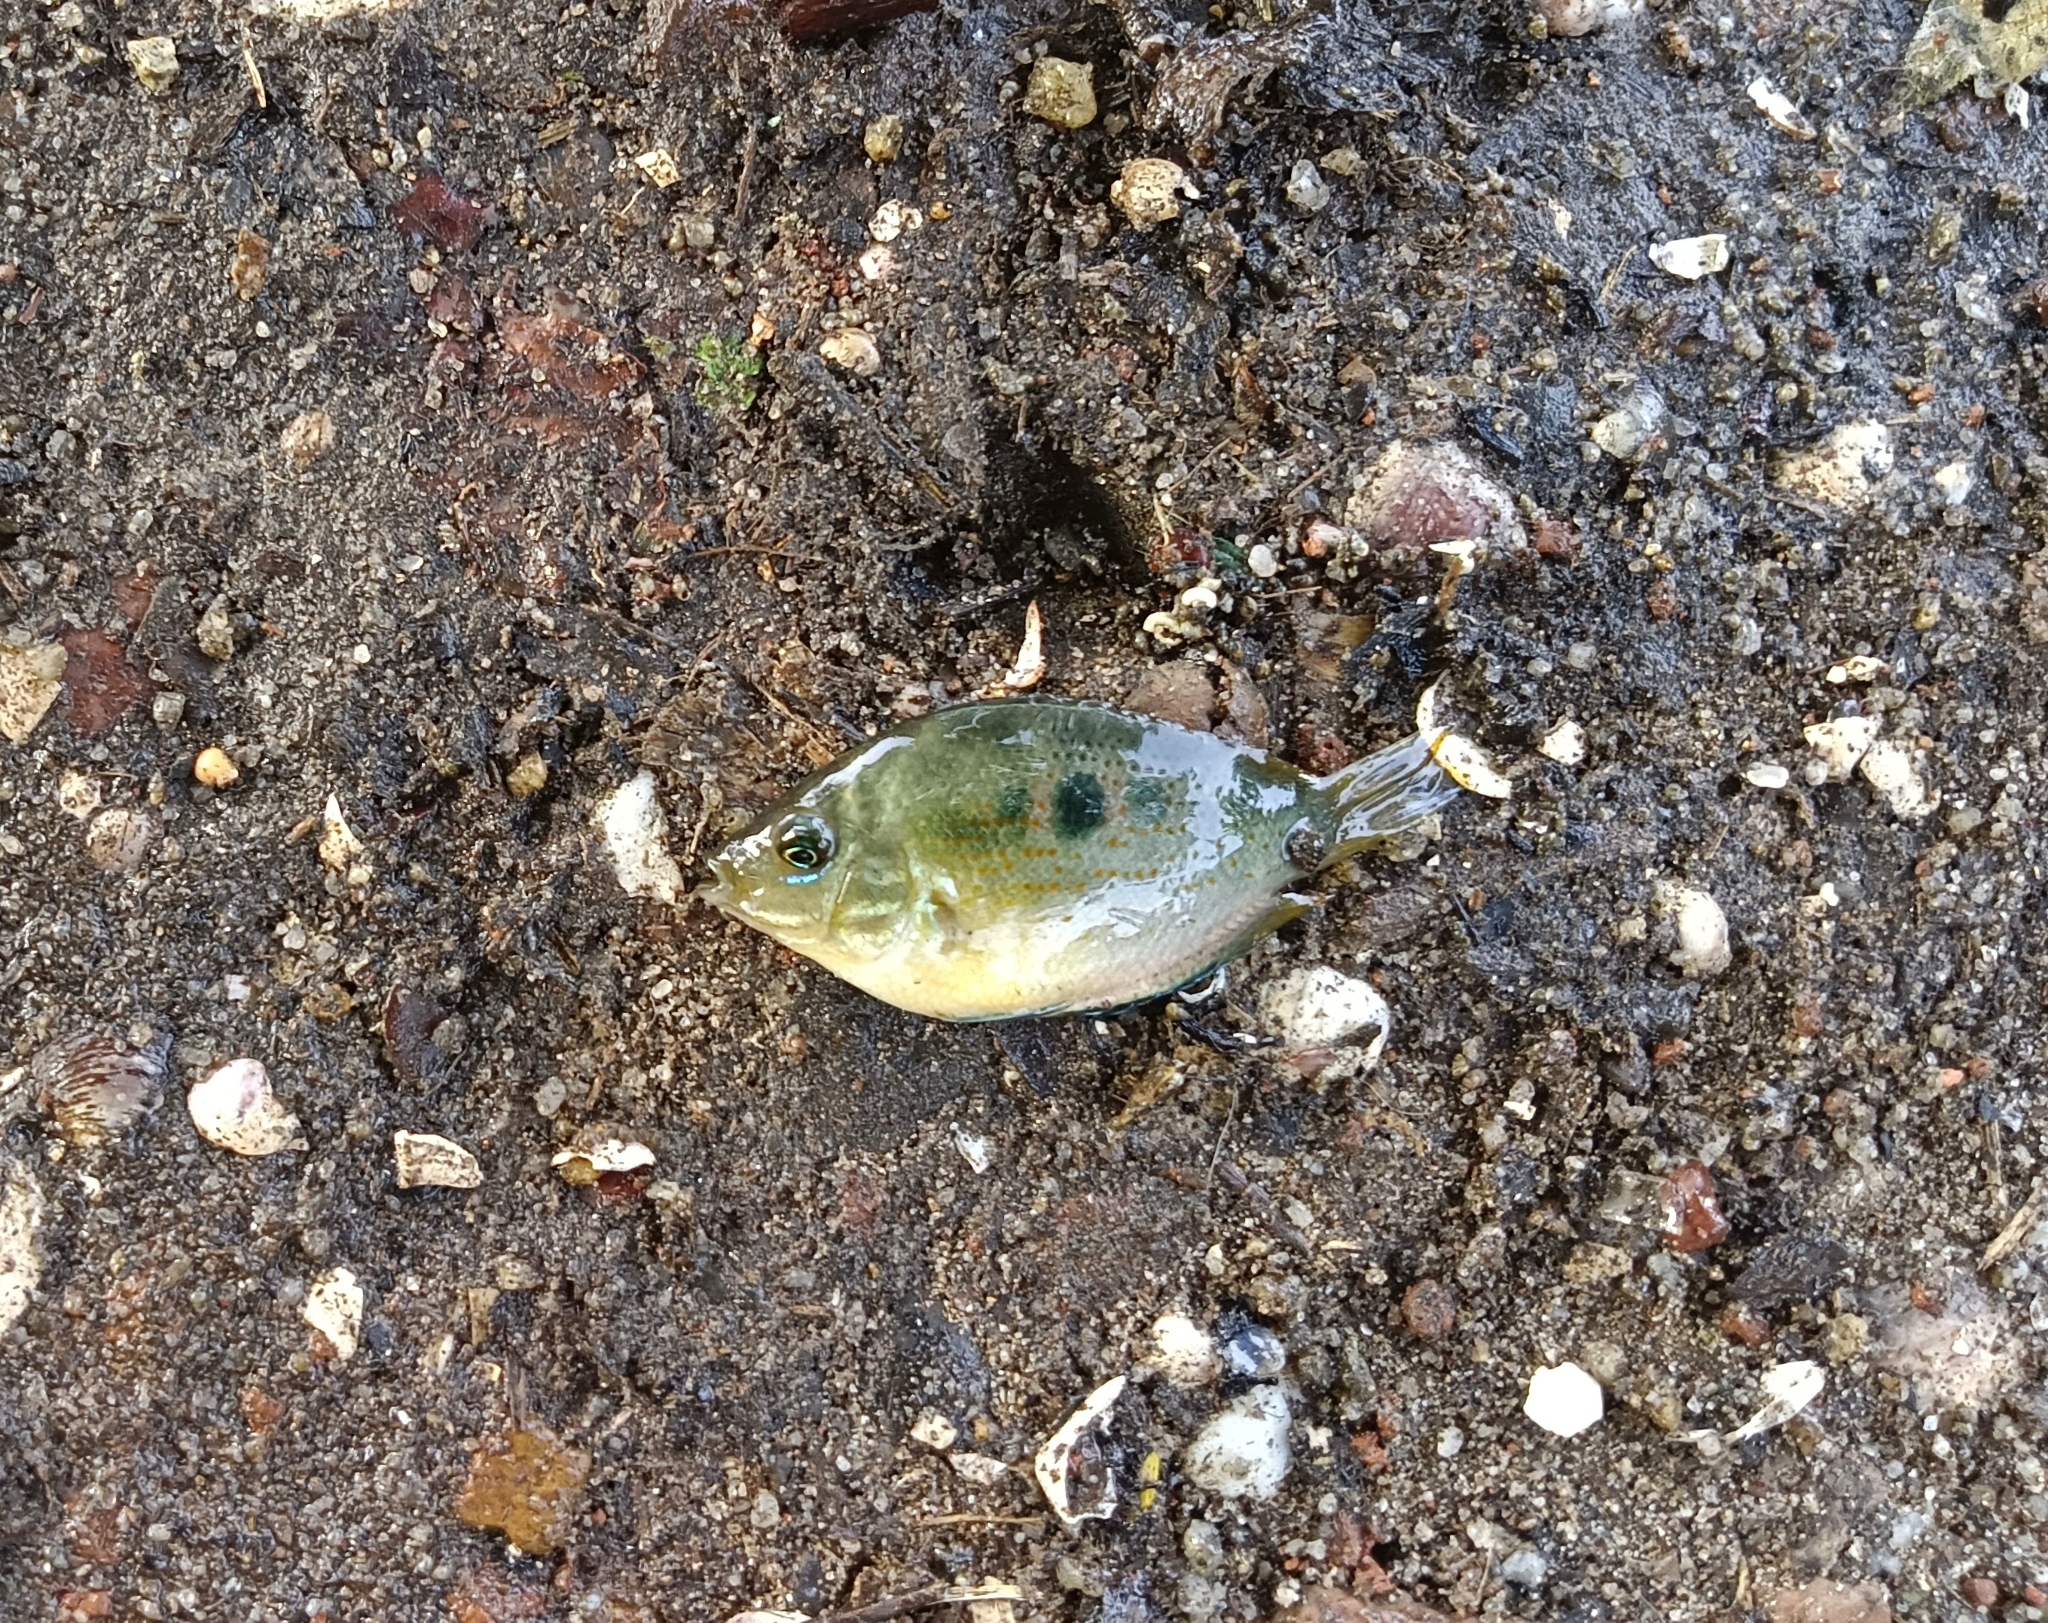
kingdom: Animalia
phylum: Chordata
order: Perciformes
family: Cichlidae
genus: Etroplus
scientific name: Etroplus maculatus
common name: Orange chromide
